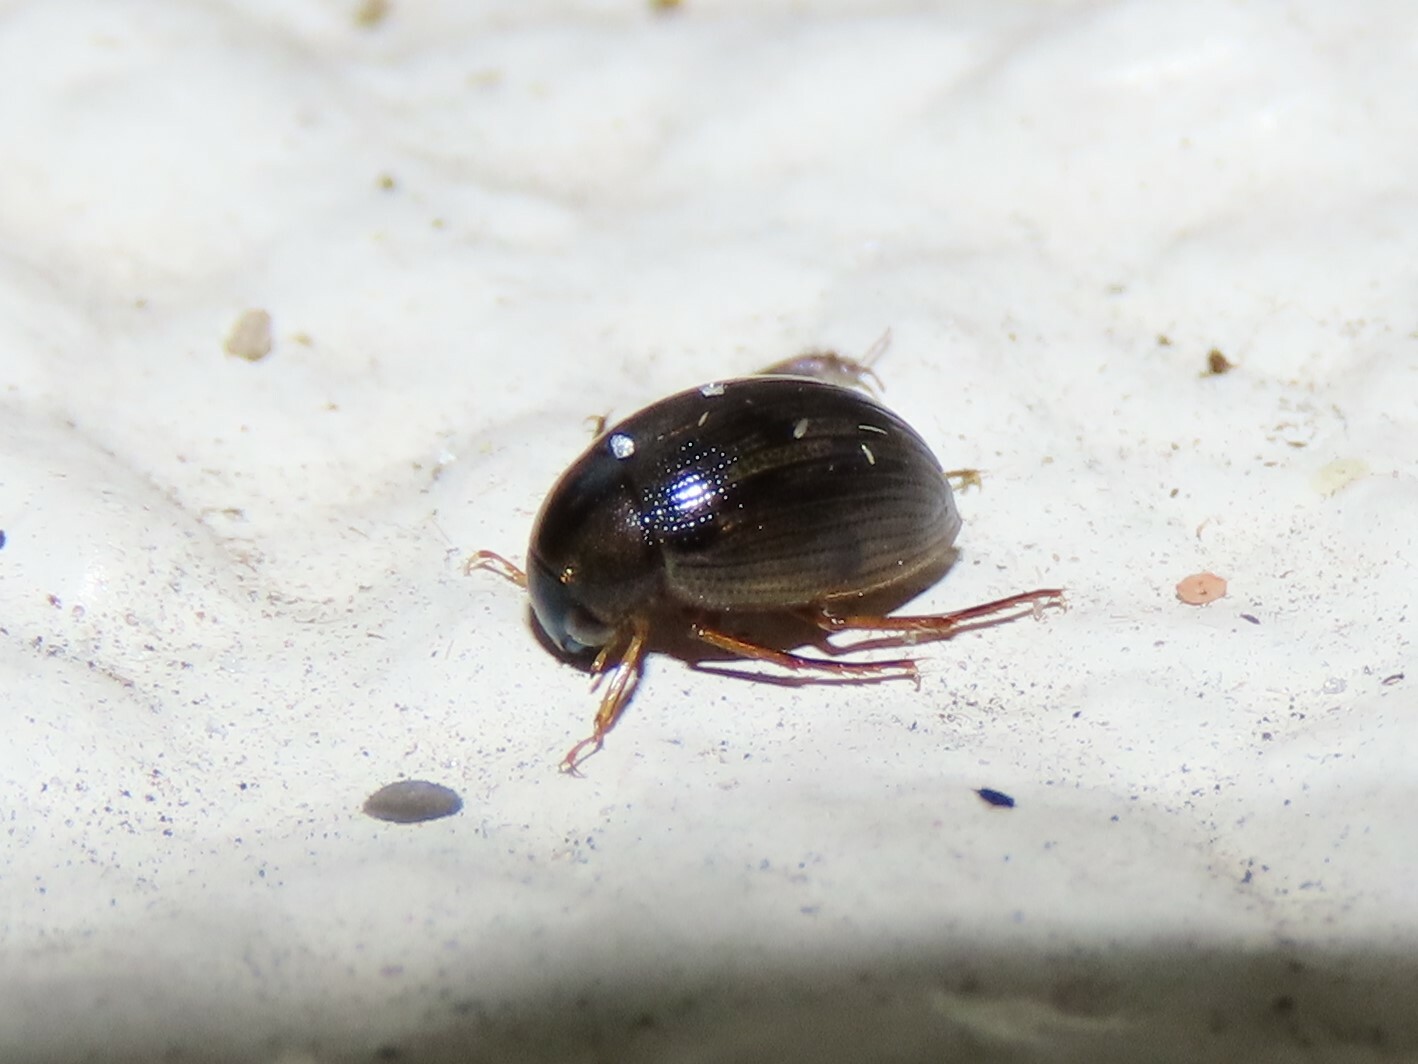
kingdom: Animalia
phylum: Arthropoda
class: Insecta
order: Coleoptera
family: Hydrophilidae
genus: Berosus
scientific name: Berosus
